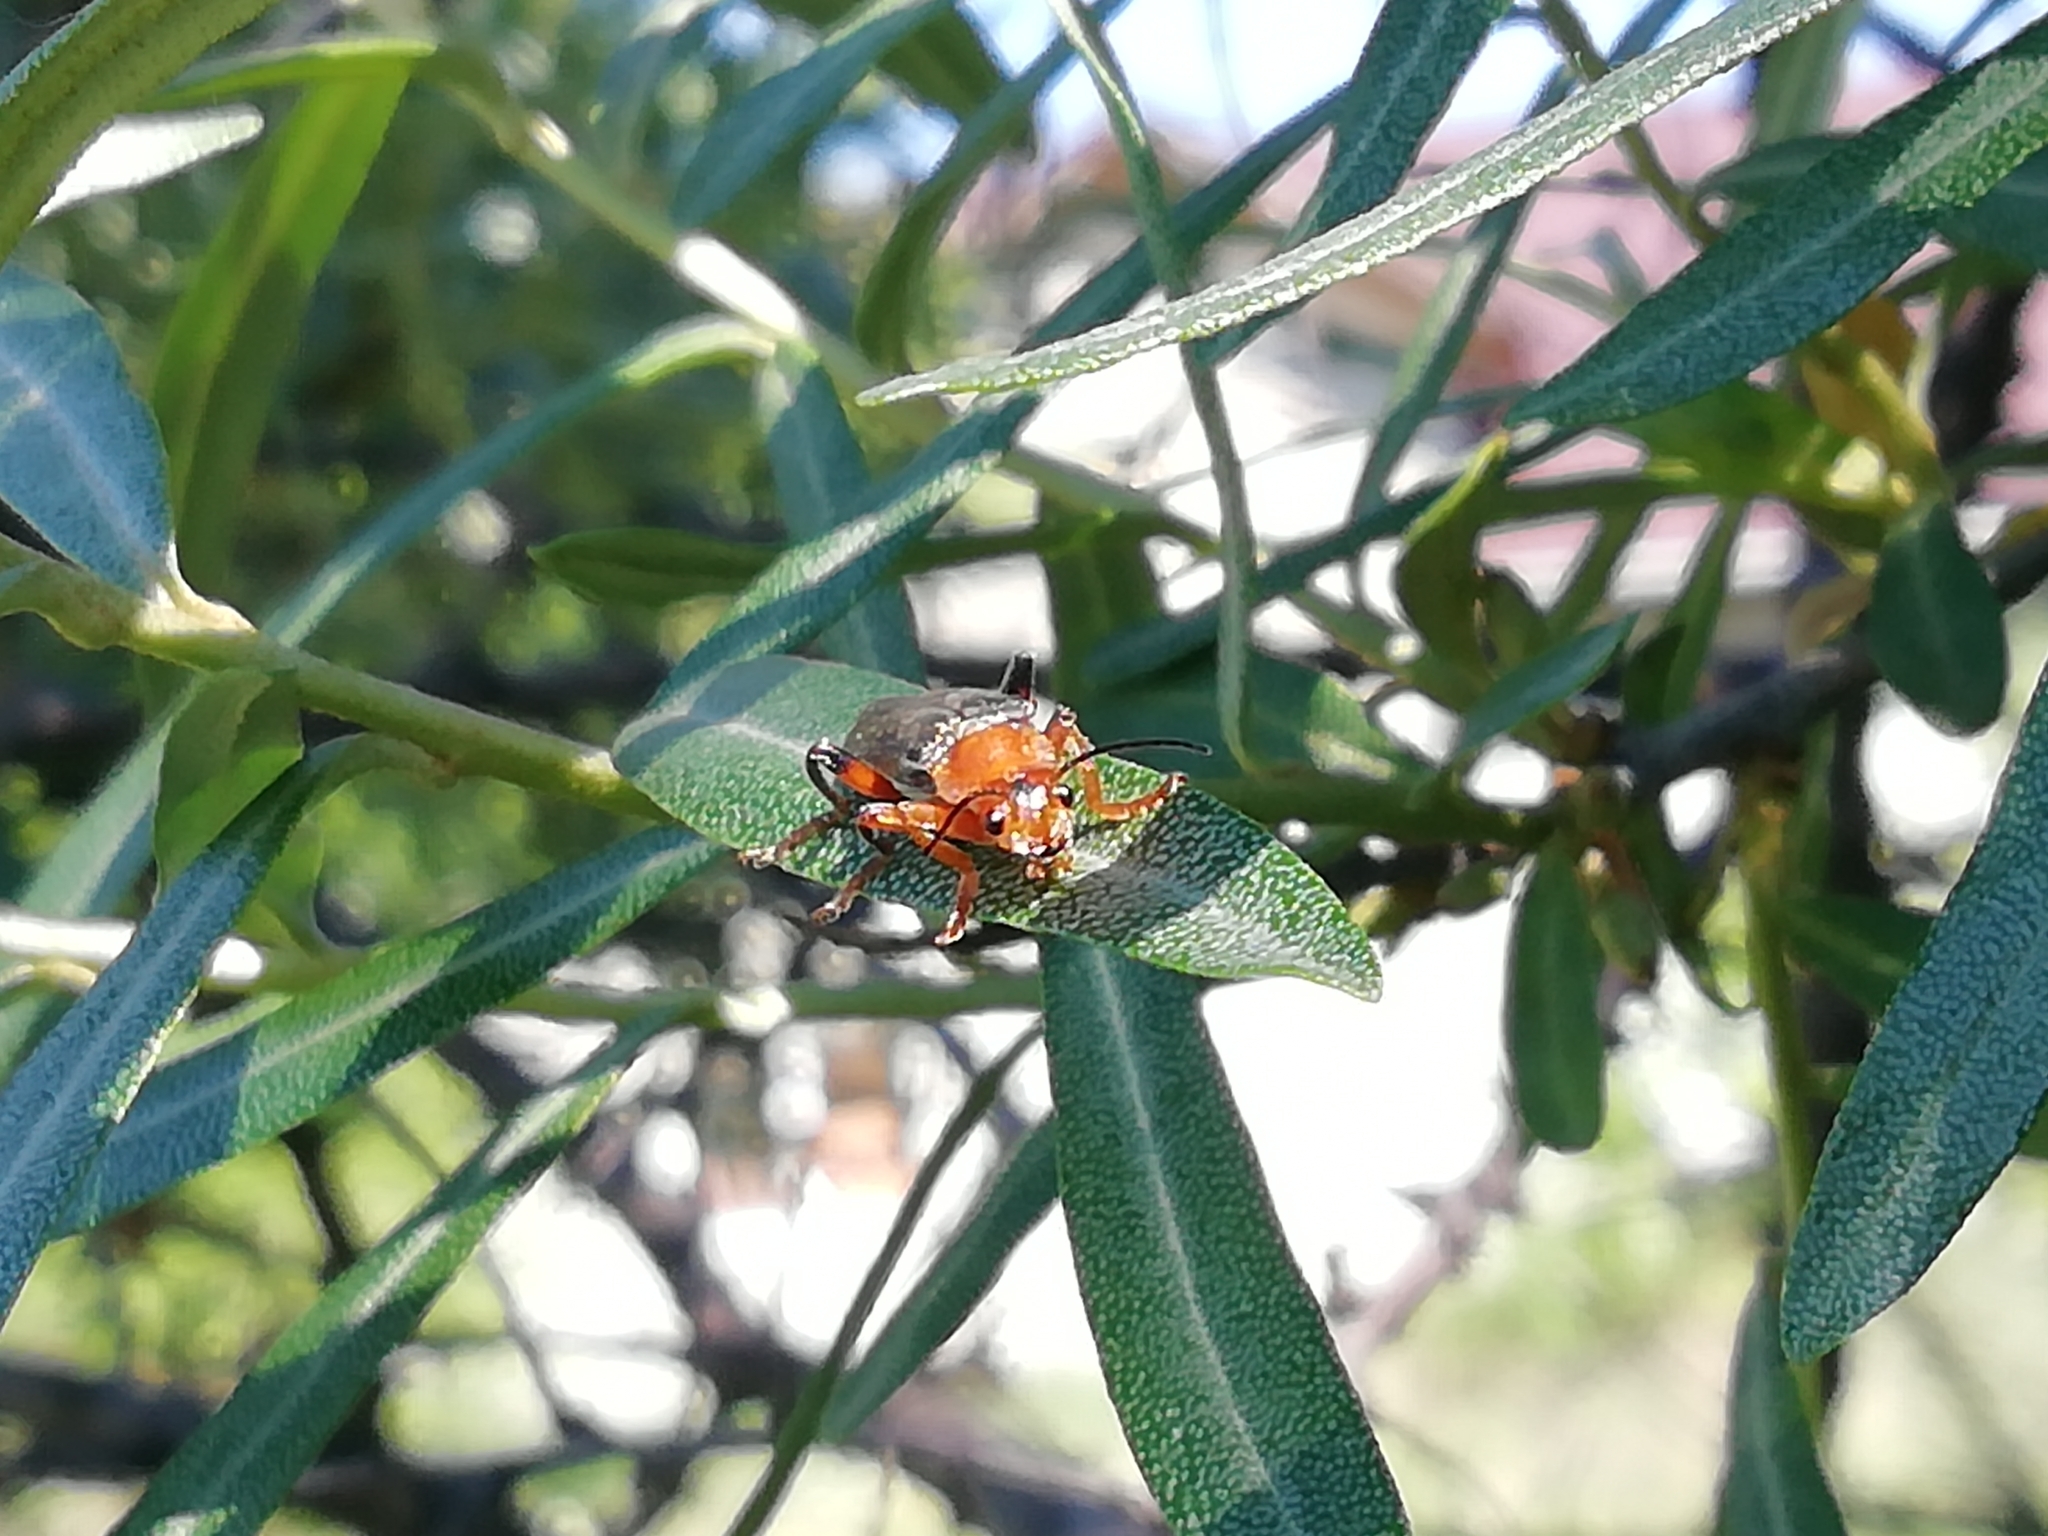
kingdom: Animalia
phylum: Arthropoda
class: Insecta
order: Coleoptera
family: Cantharidae
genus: Cantharis
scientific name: Cantharis livida
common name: Livid soldier beetle
